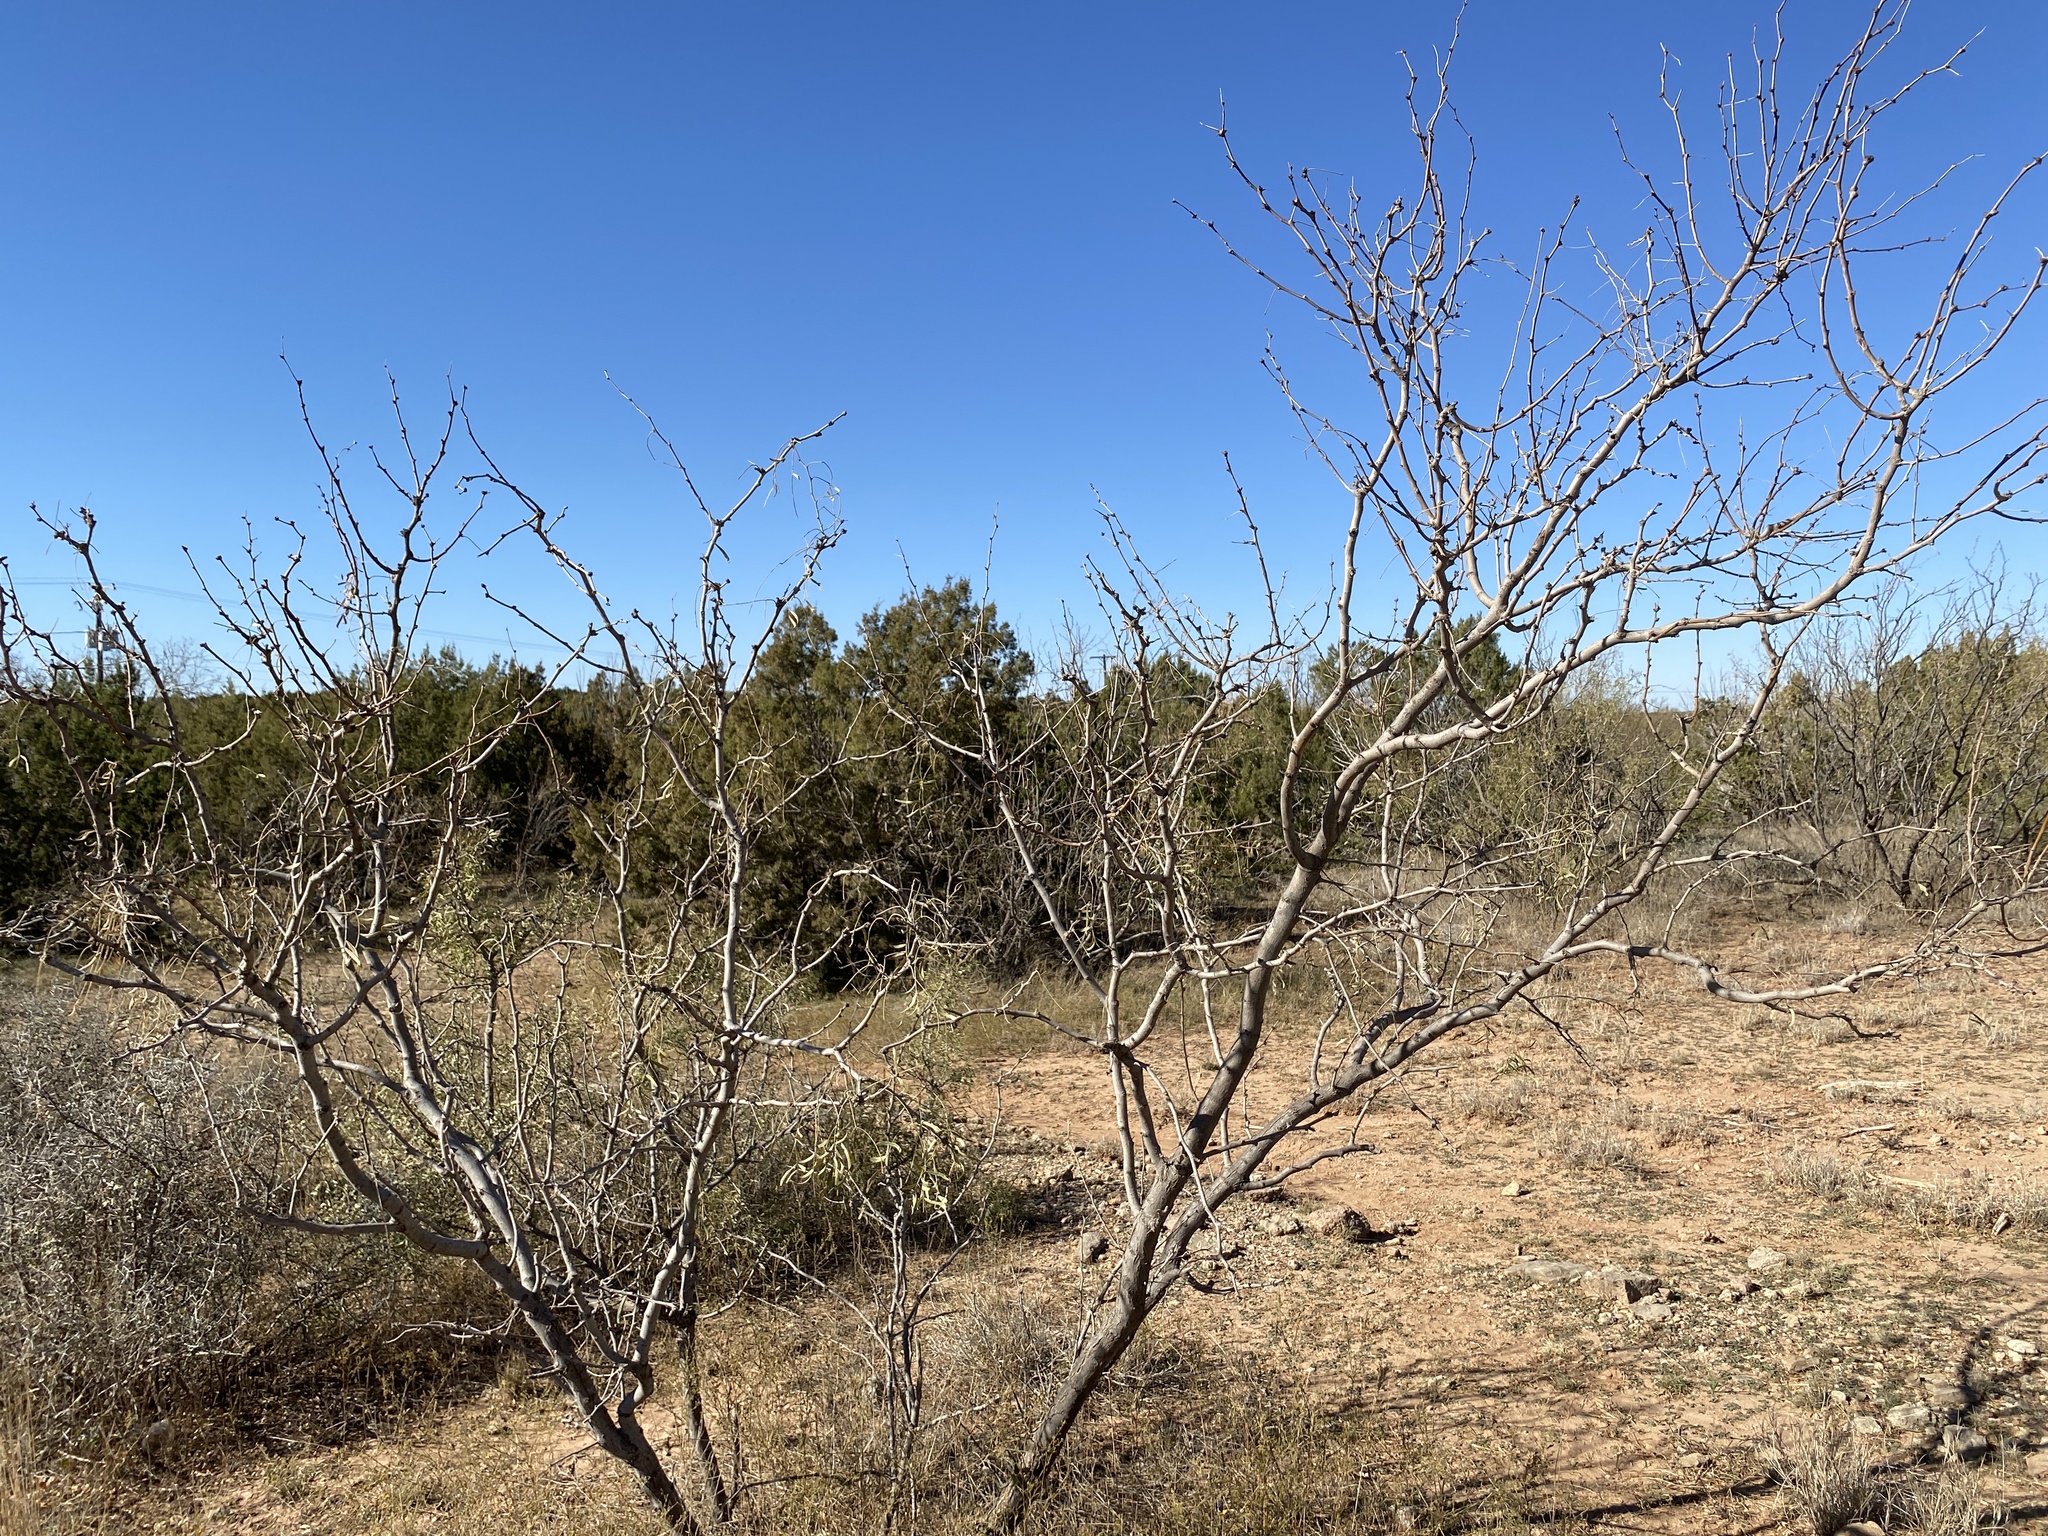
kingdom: Plantae
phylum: Tracheophyta
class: Magnoliopsida
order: Fabales
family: Fabaceae
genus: Prosopis
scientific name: Prosopis glandulosa
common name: Honey mesquite
